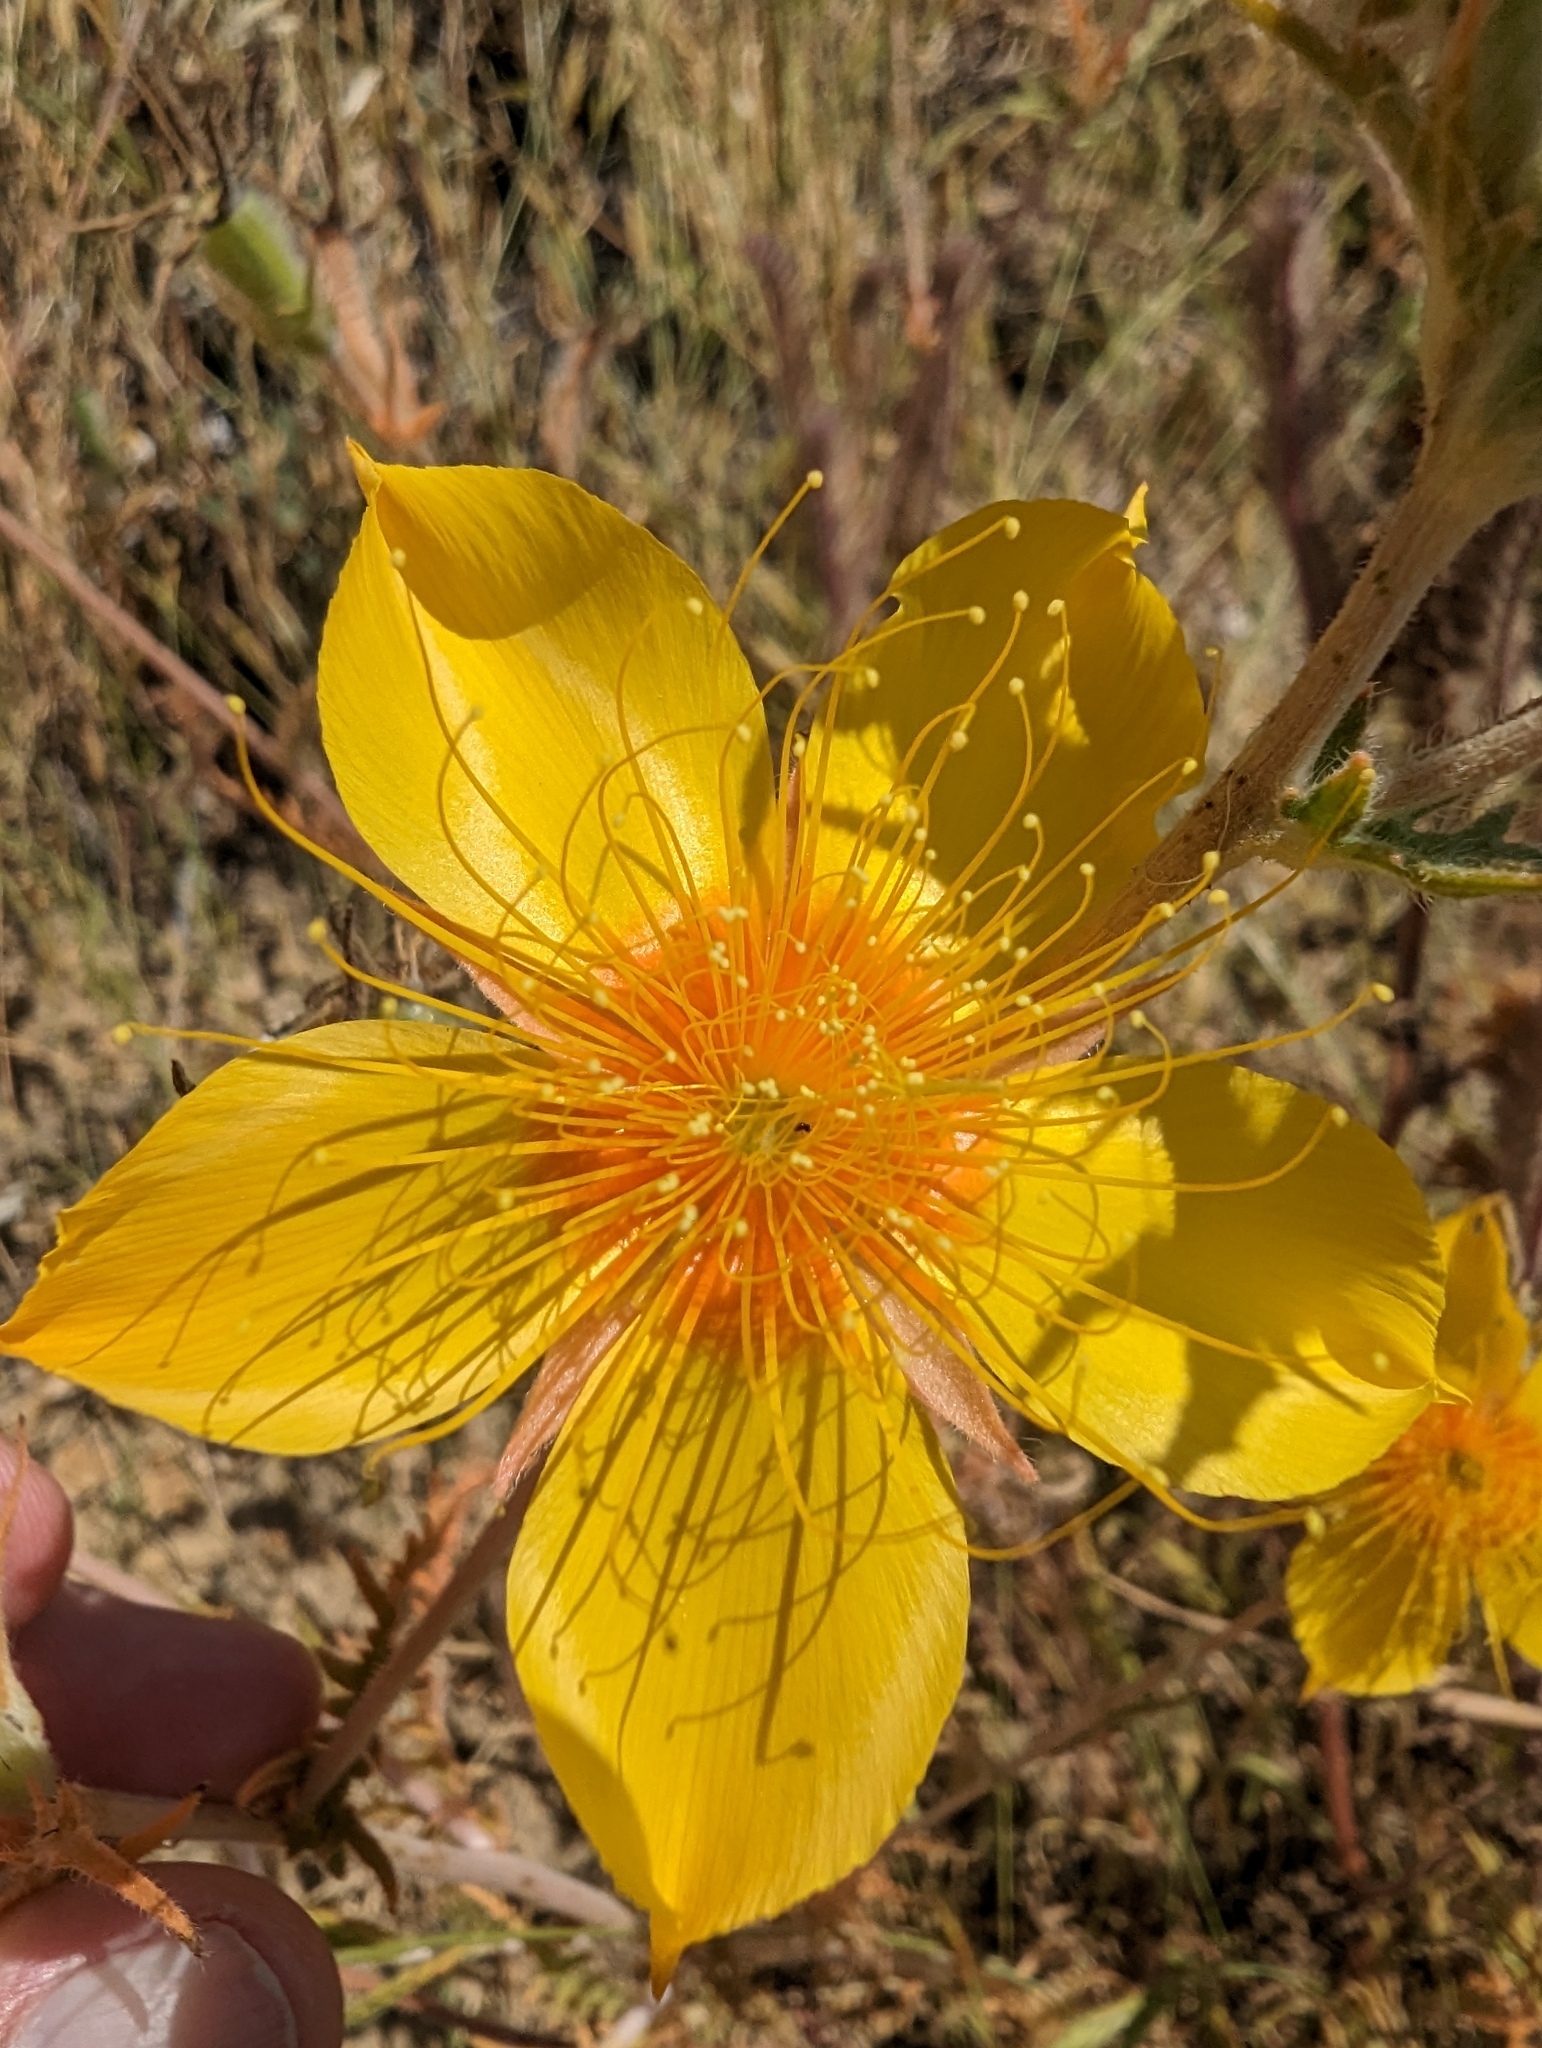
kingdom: Plantae
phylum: Tracheophyta
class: Magnoliopsida
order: Cornales
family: Loasaceae
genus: Mentzelia
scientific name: Mentzelia lindleyi
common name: Golden bartonia
